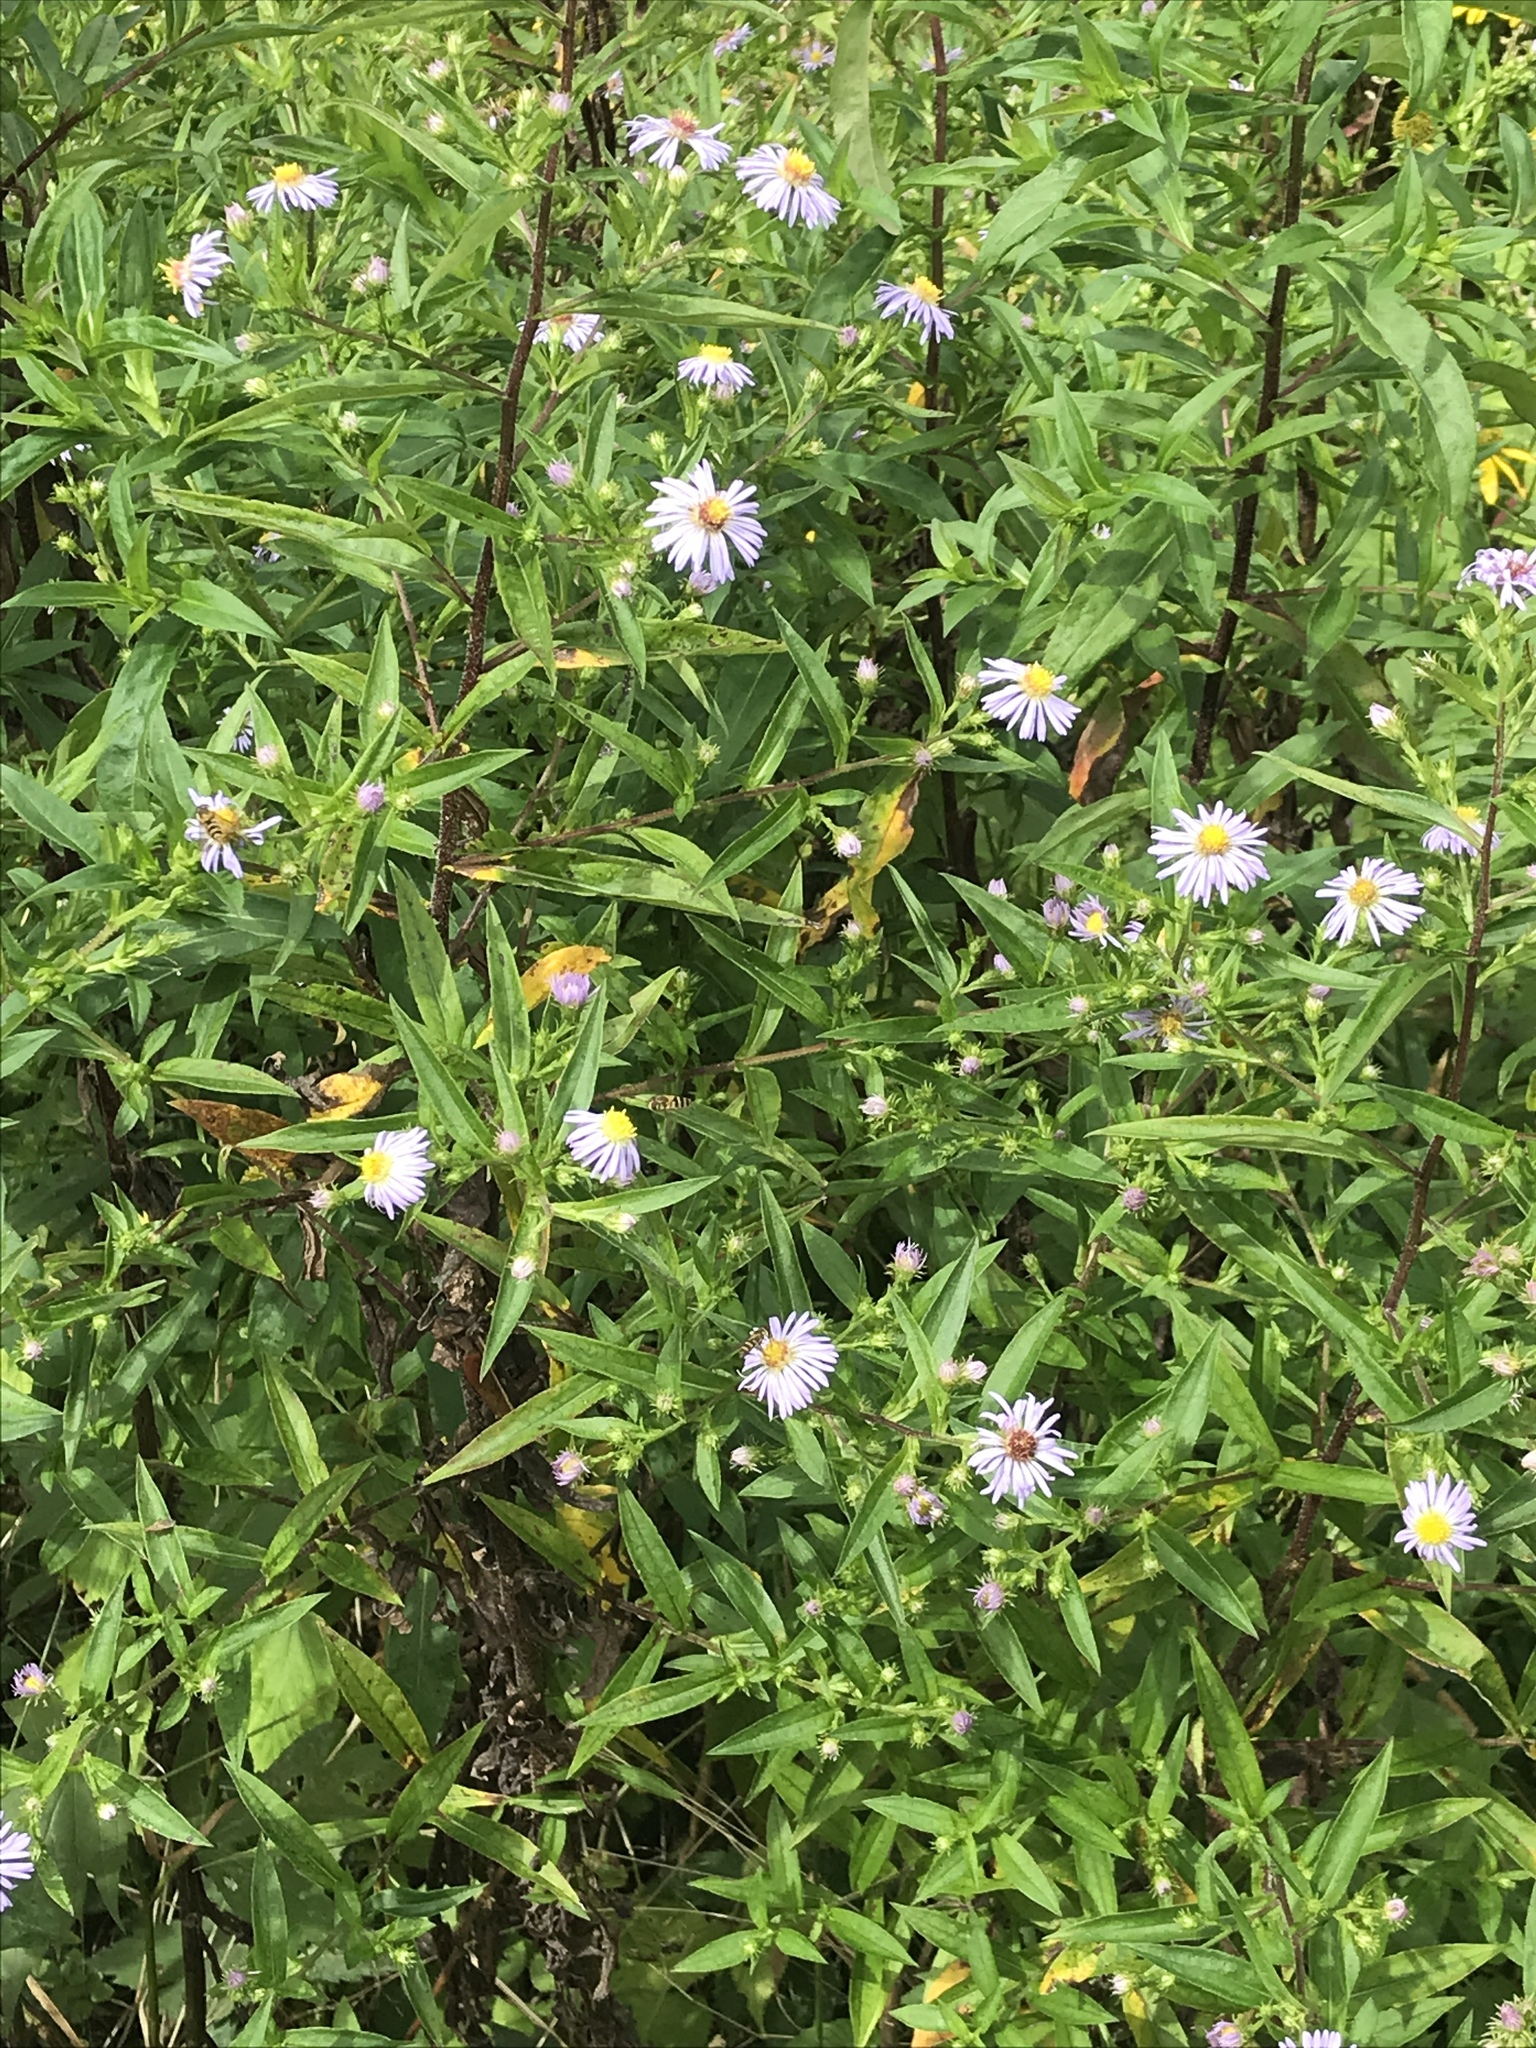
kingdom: Plantae
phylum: Tracheophyta
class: Magnoliopsida
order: Asterales
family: Asteraceae
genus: Symphyotrichum
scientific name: Symphyotrichum novae-angliae
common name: Michaelmas daisy
